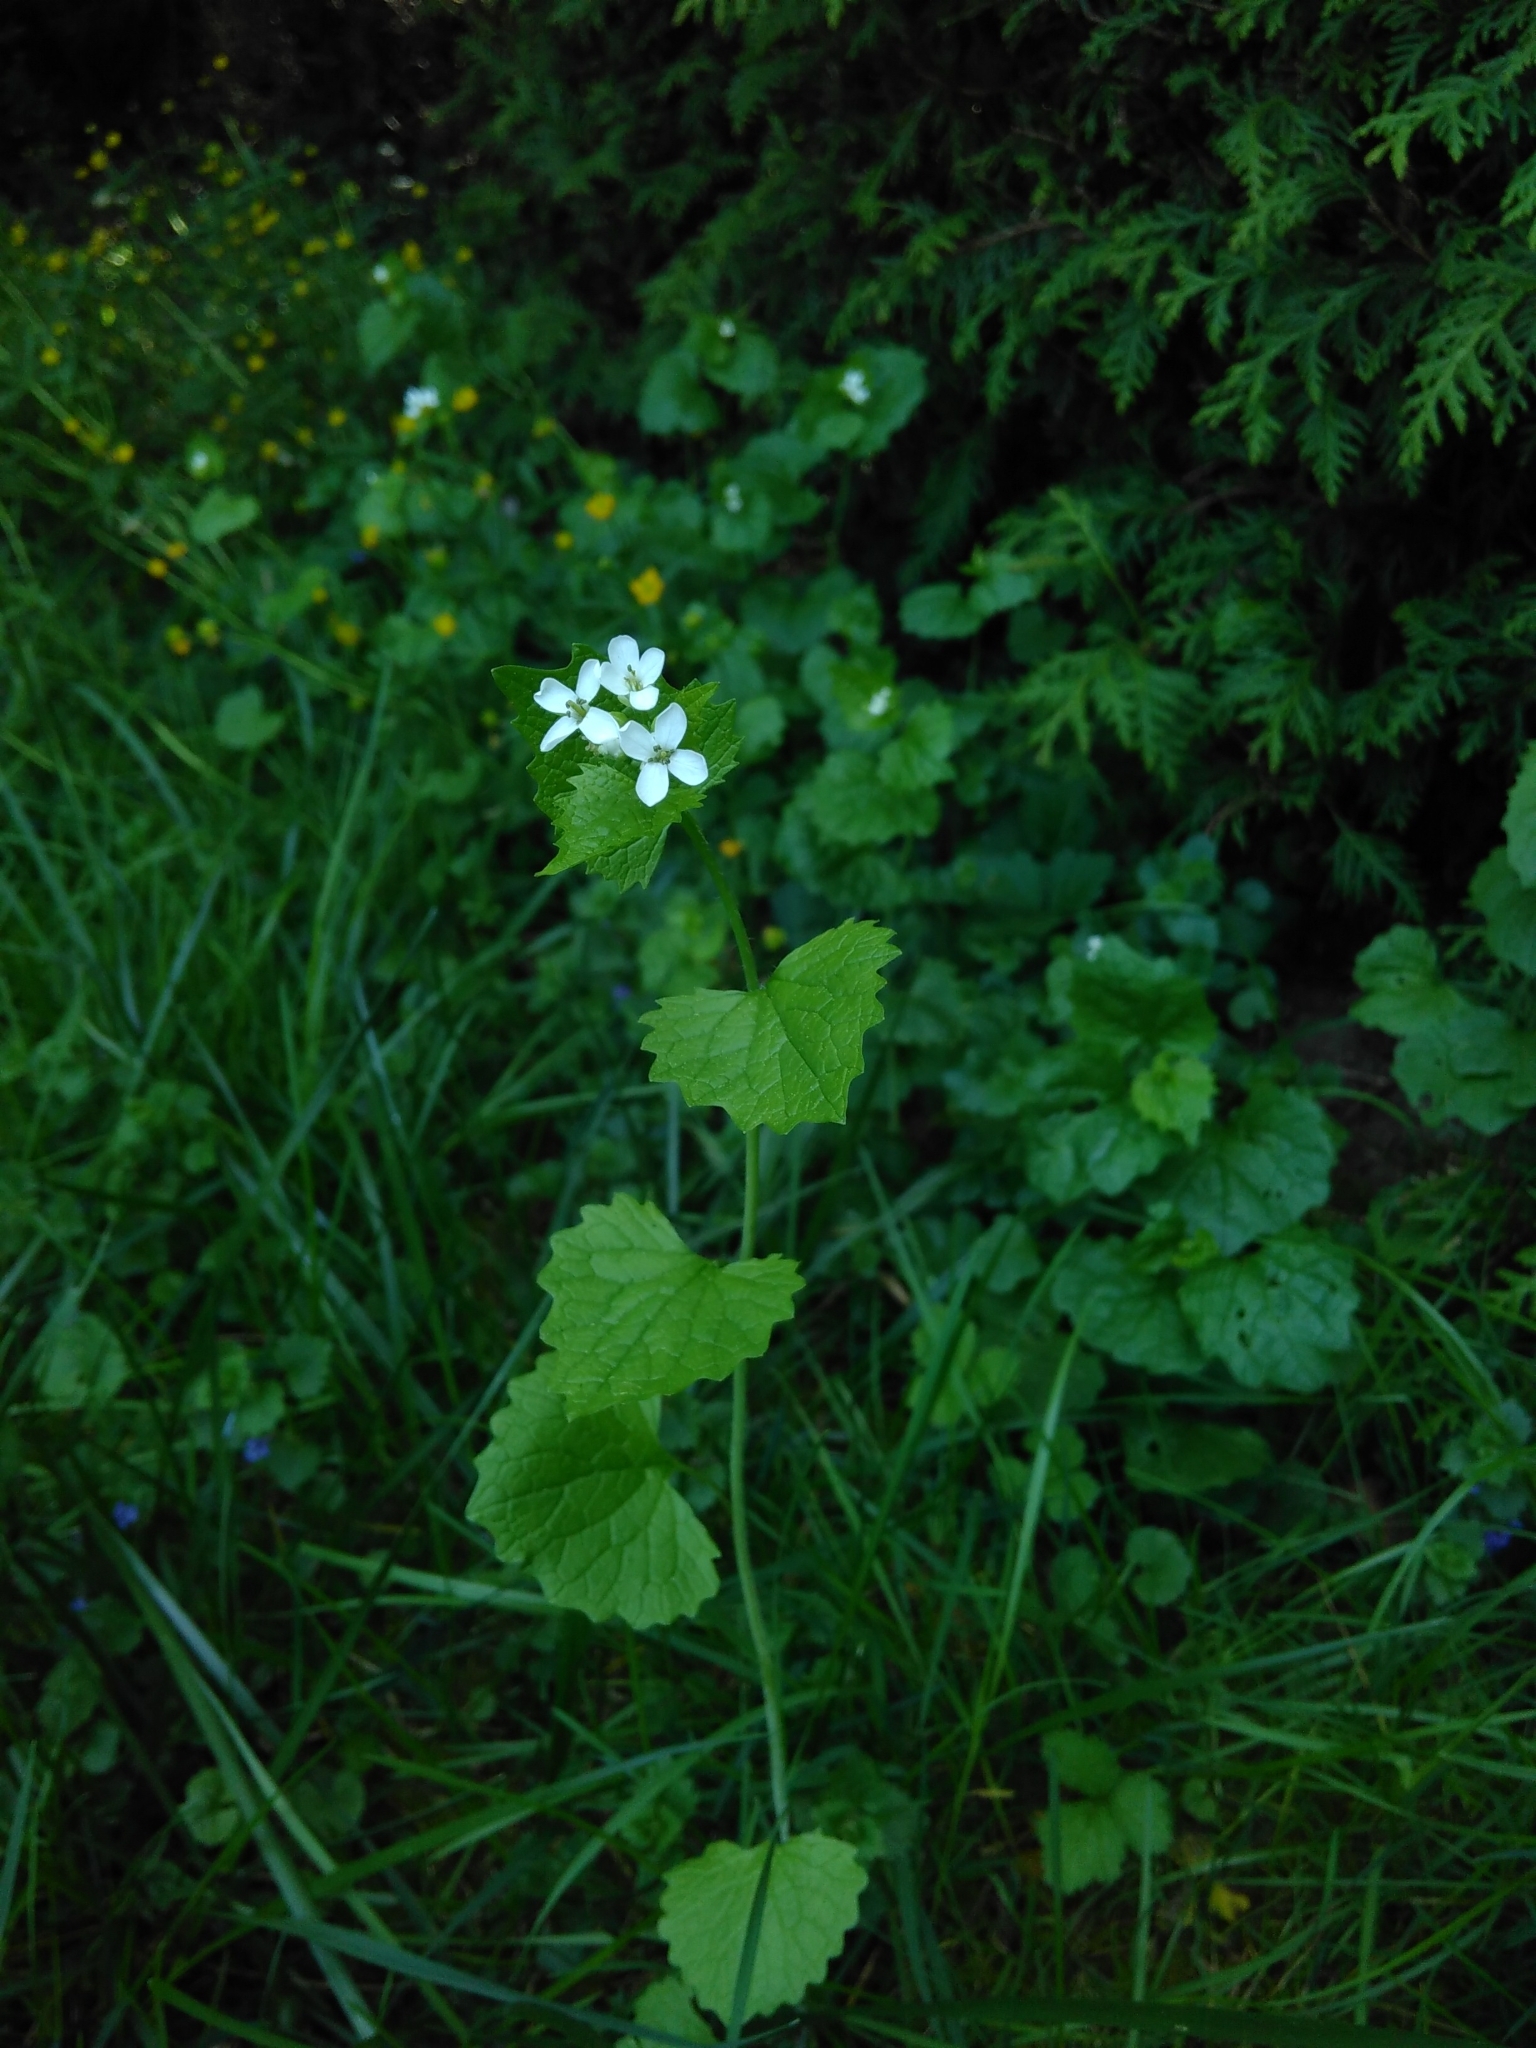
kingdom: Plantae
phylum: Tracheophyta
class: Magnoliopsida
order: Brassicales
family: Brassicaceae
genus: Alliaria
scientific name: Alliaria petiolata
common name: Garlic mustard
